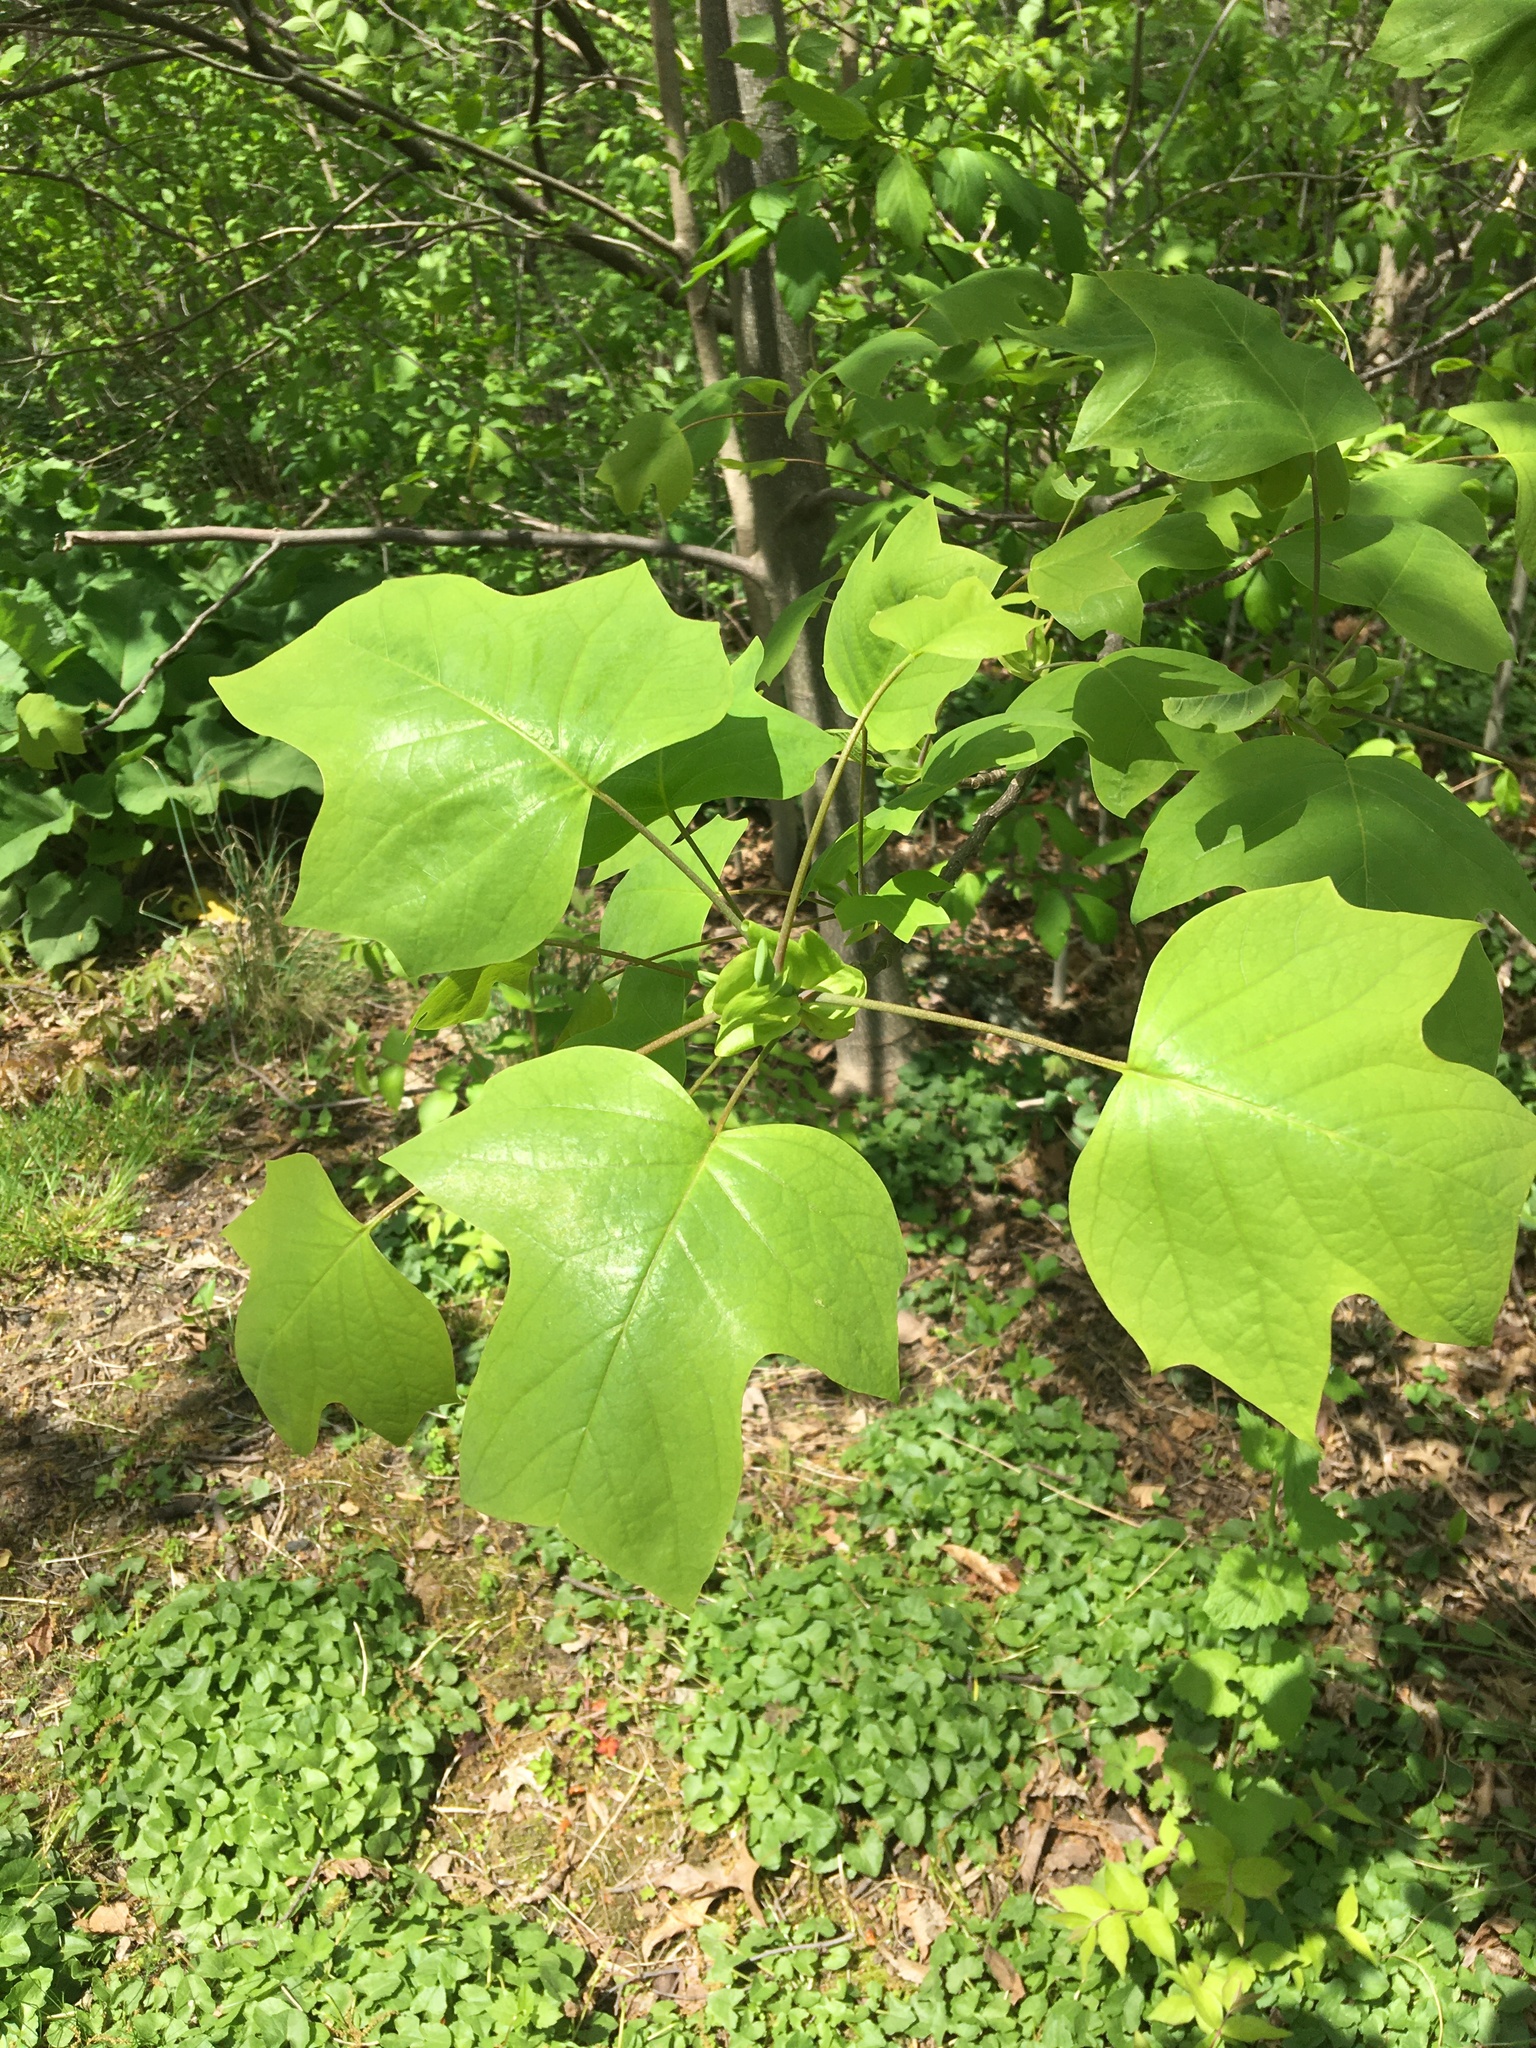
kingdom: Plantae
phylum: Tracheophyta
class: Magnoliopsida
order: Magnoliales
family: Magnoliaceae
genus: Liriodendron
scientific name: Liriodendron tulipifera
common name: Tulip tree
